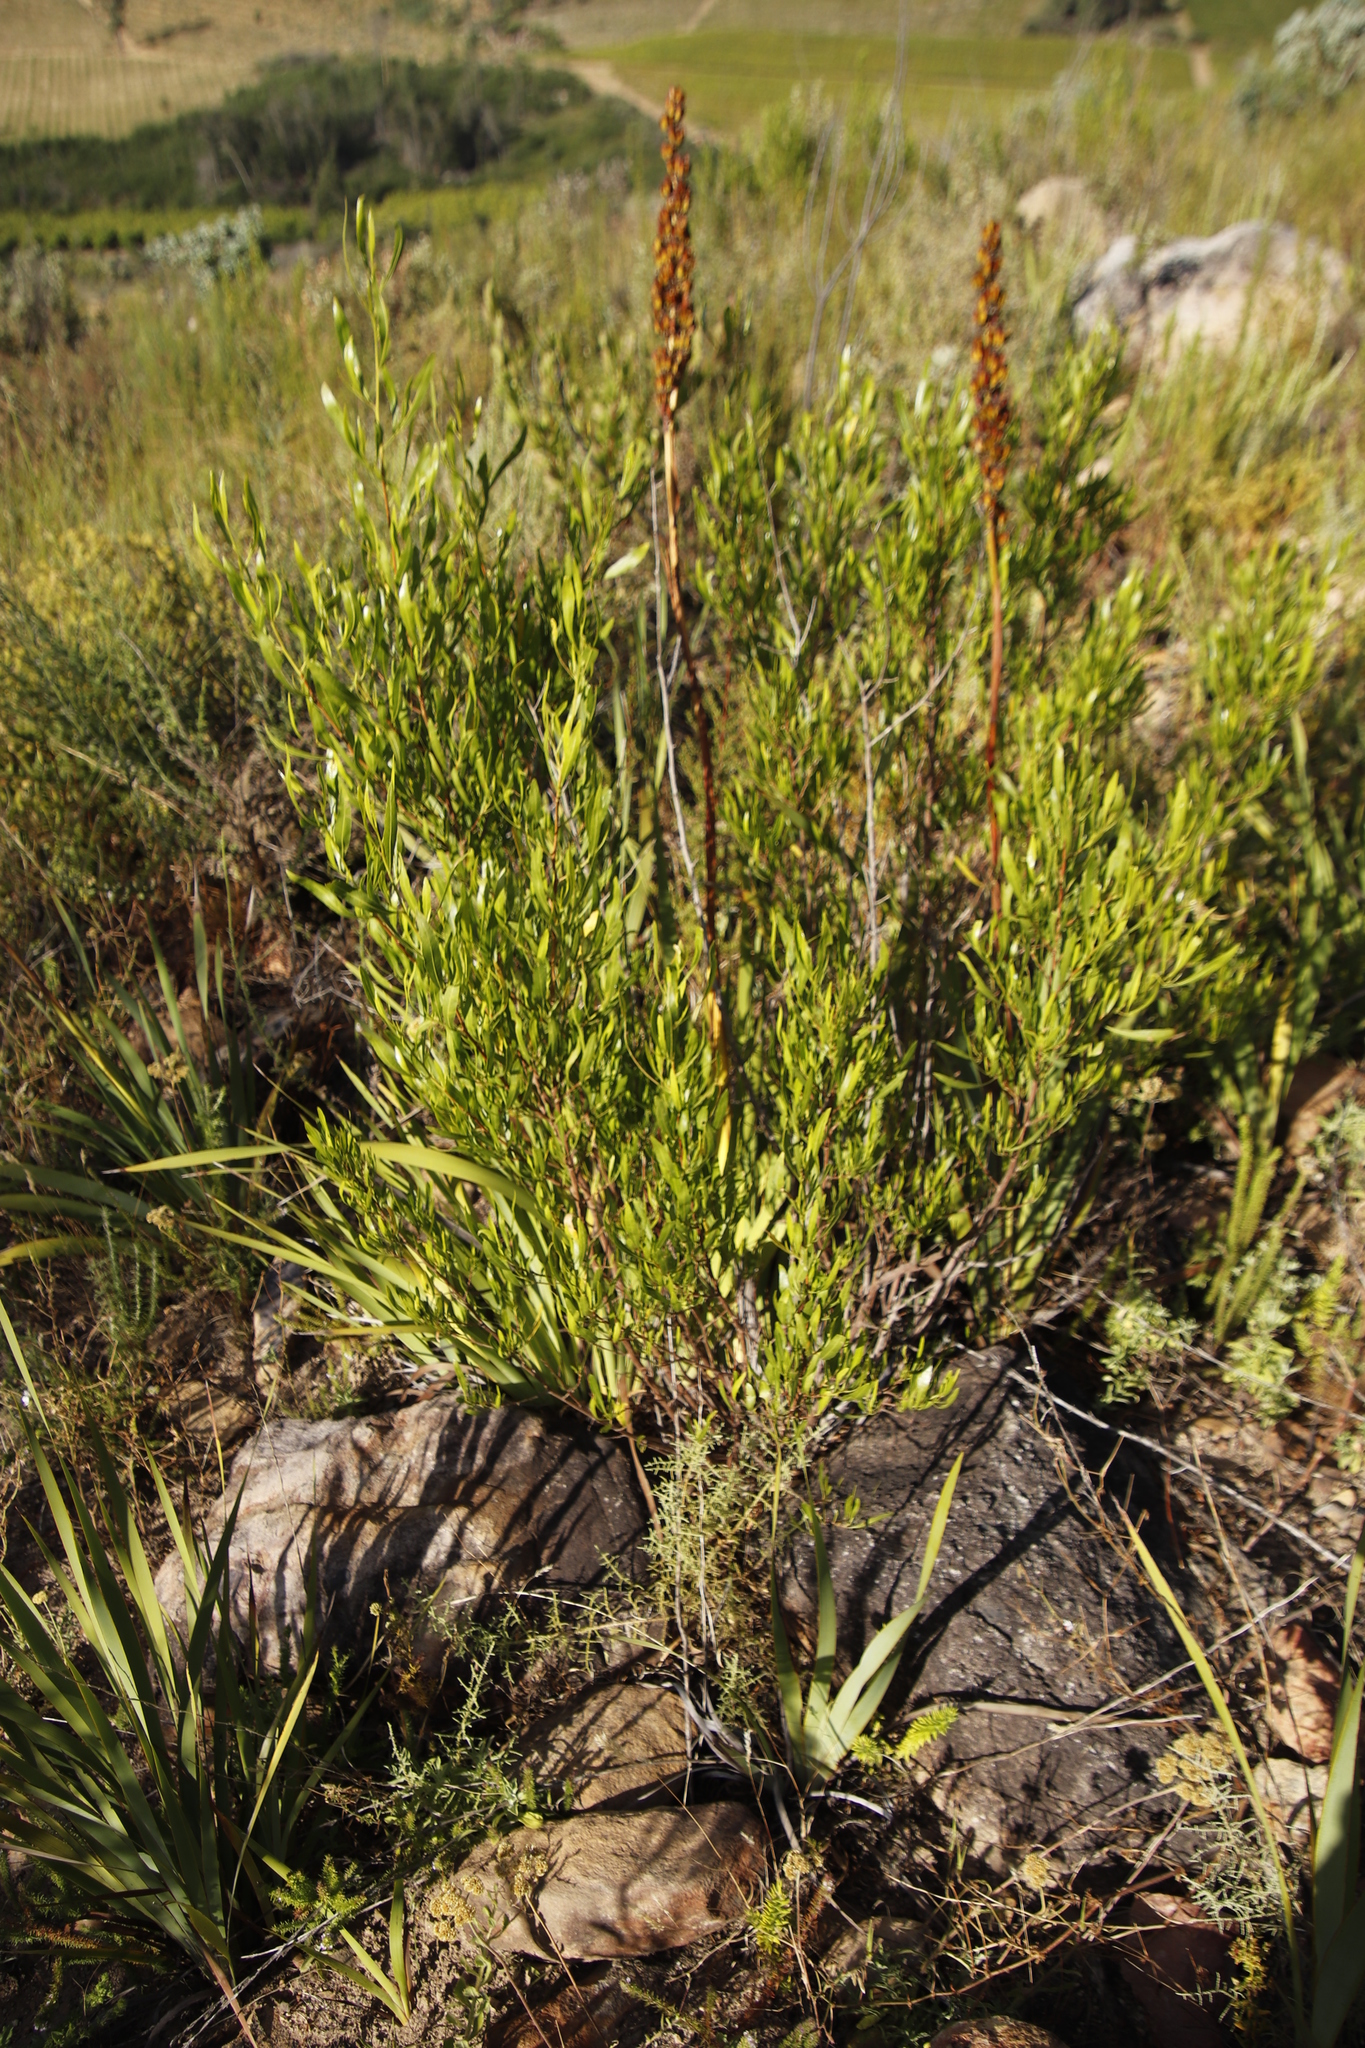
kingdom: Plantae
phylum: Tracheophyta
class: Magnoliopsida
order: Sapindales
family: Sapindaceae
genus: Dodonaea
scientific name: Dodonaea viscosa
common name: Hopbush
